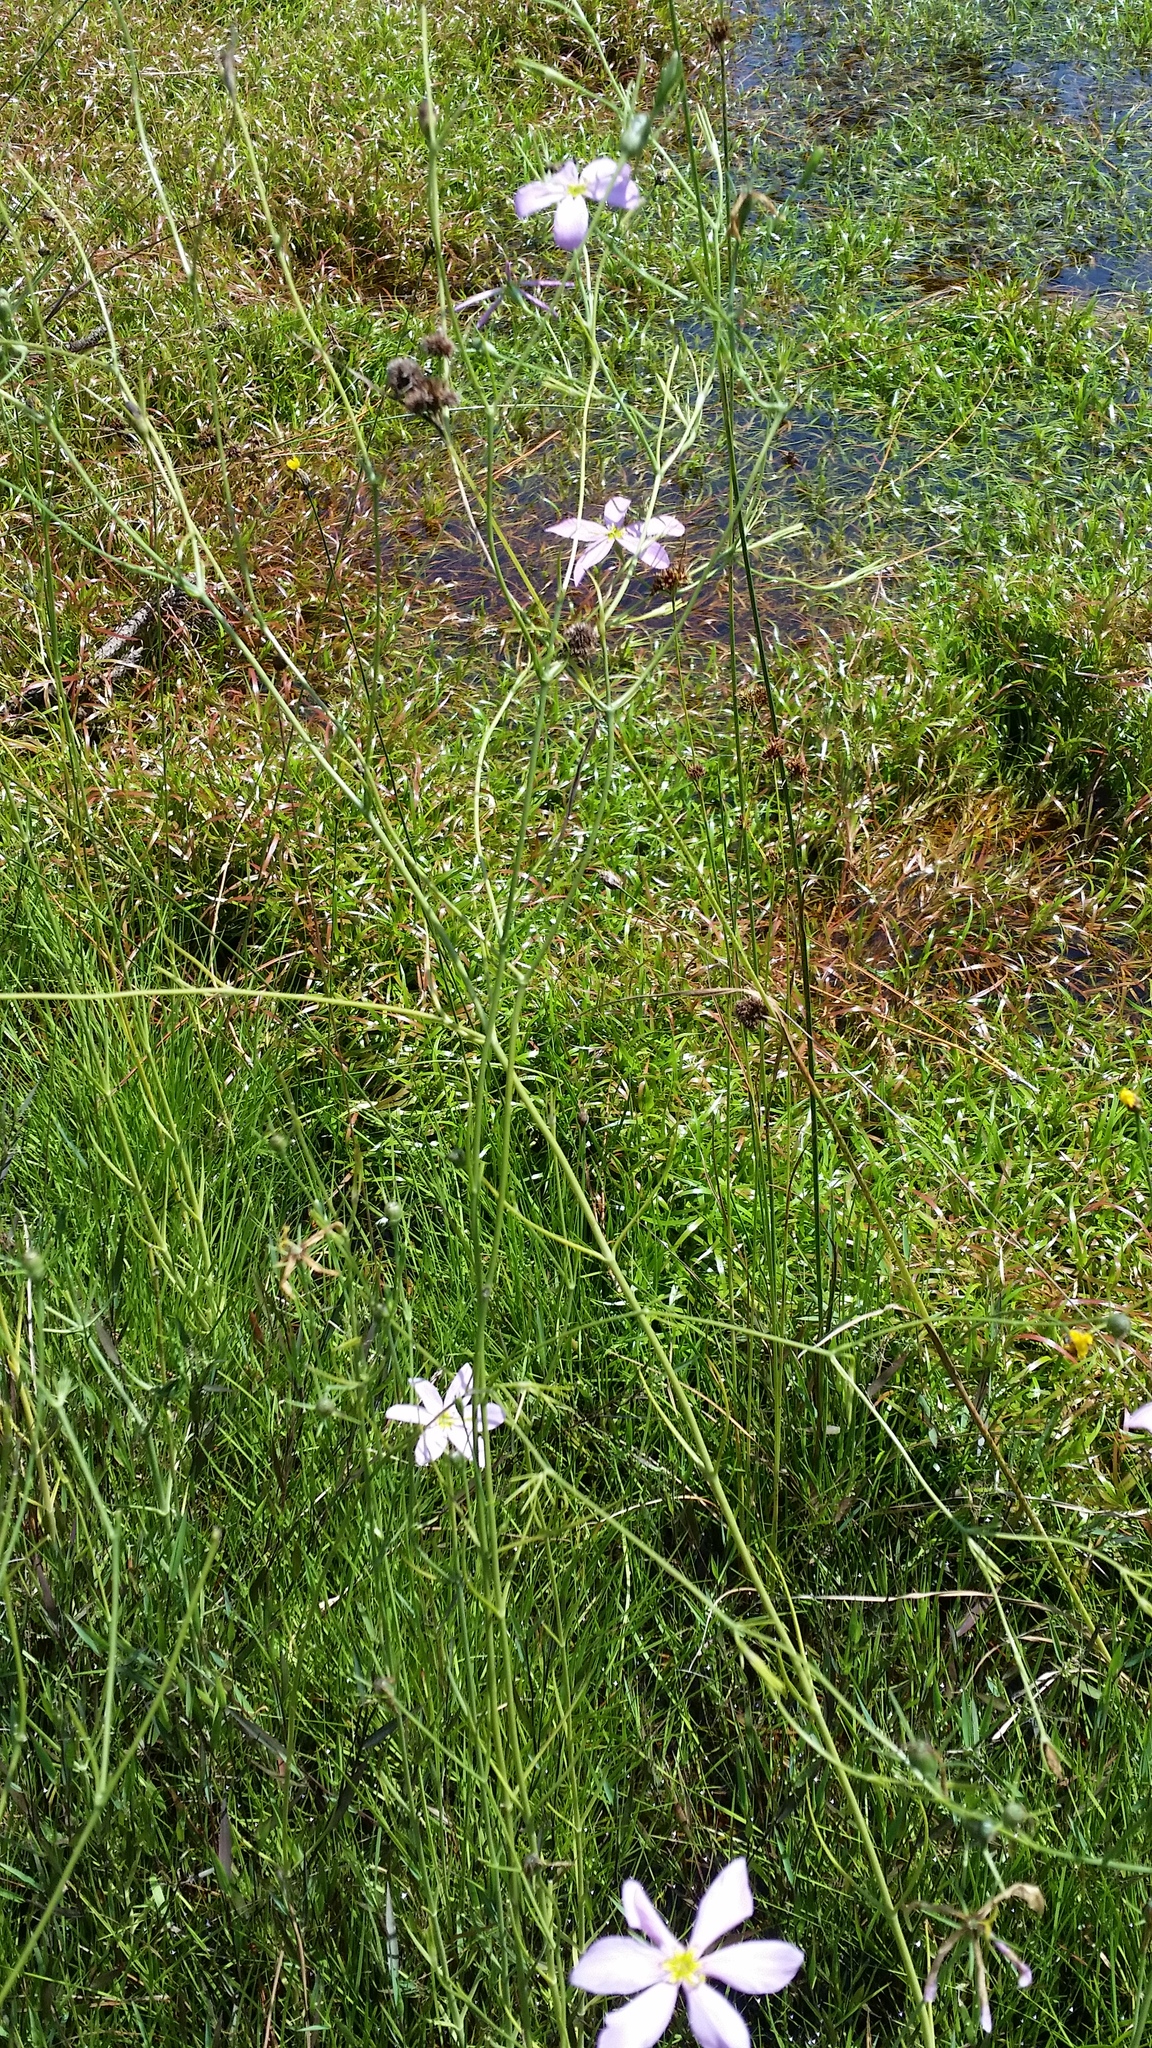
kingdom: Plantae
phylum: Tracheophyta
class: Magnoliopsida
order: Gentianales
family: Gentianaceae
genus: Sabatia
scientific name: Sabatia grandiflora
